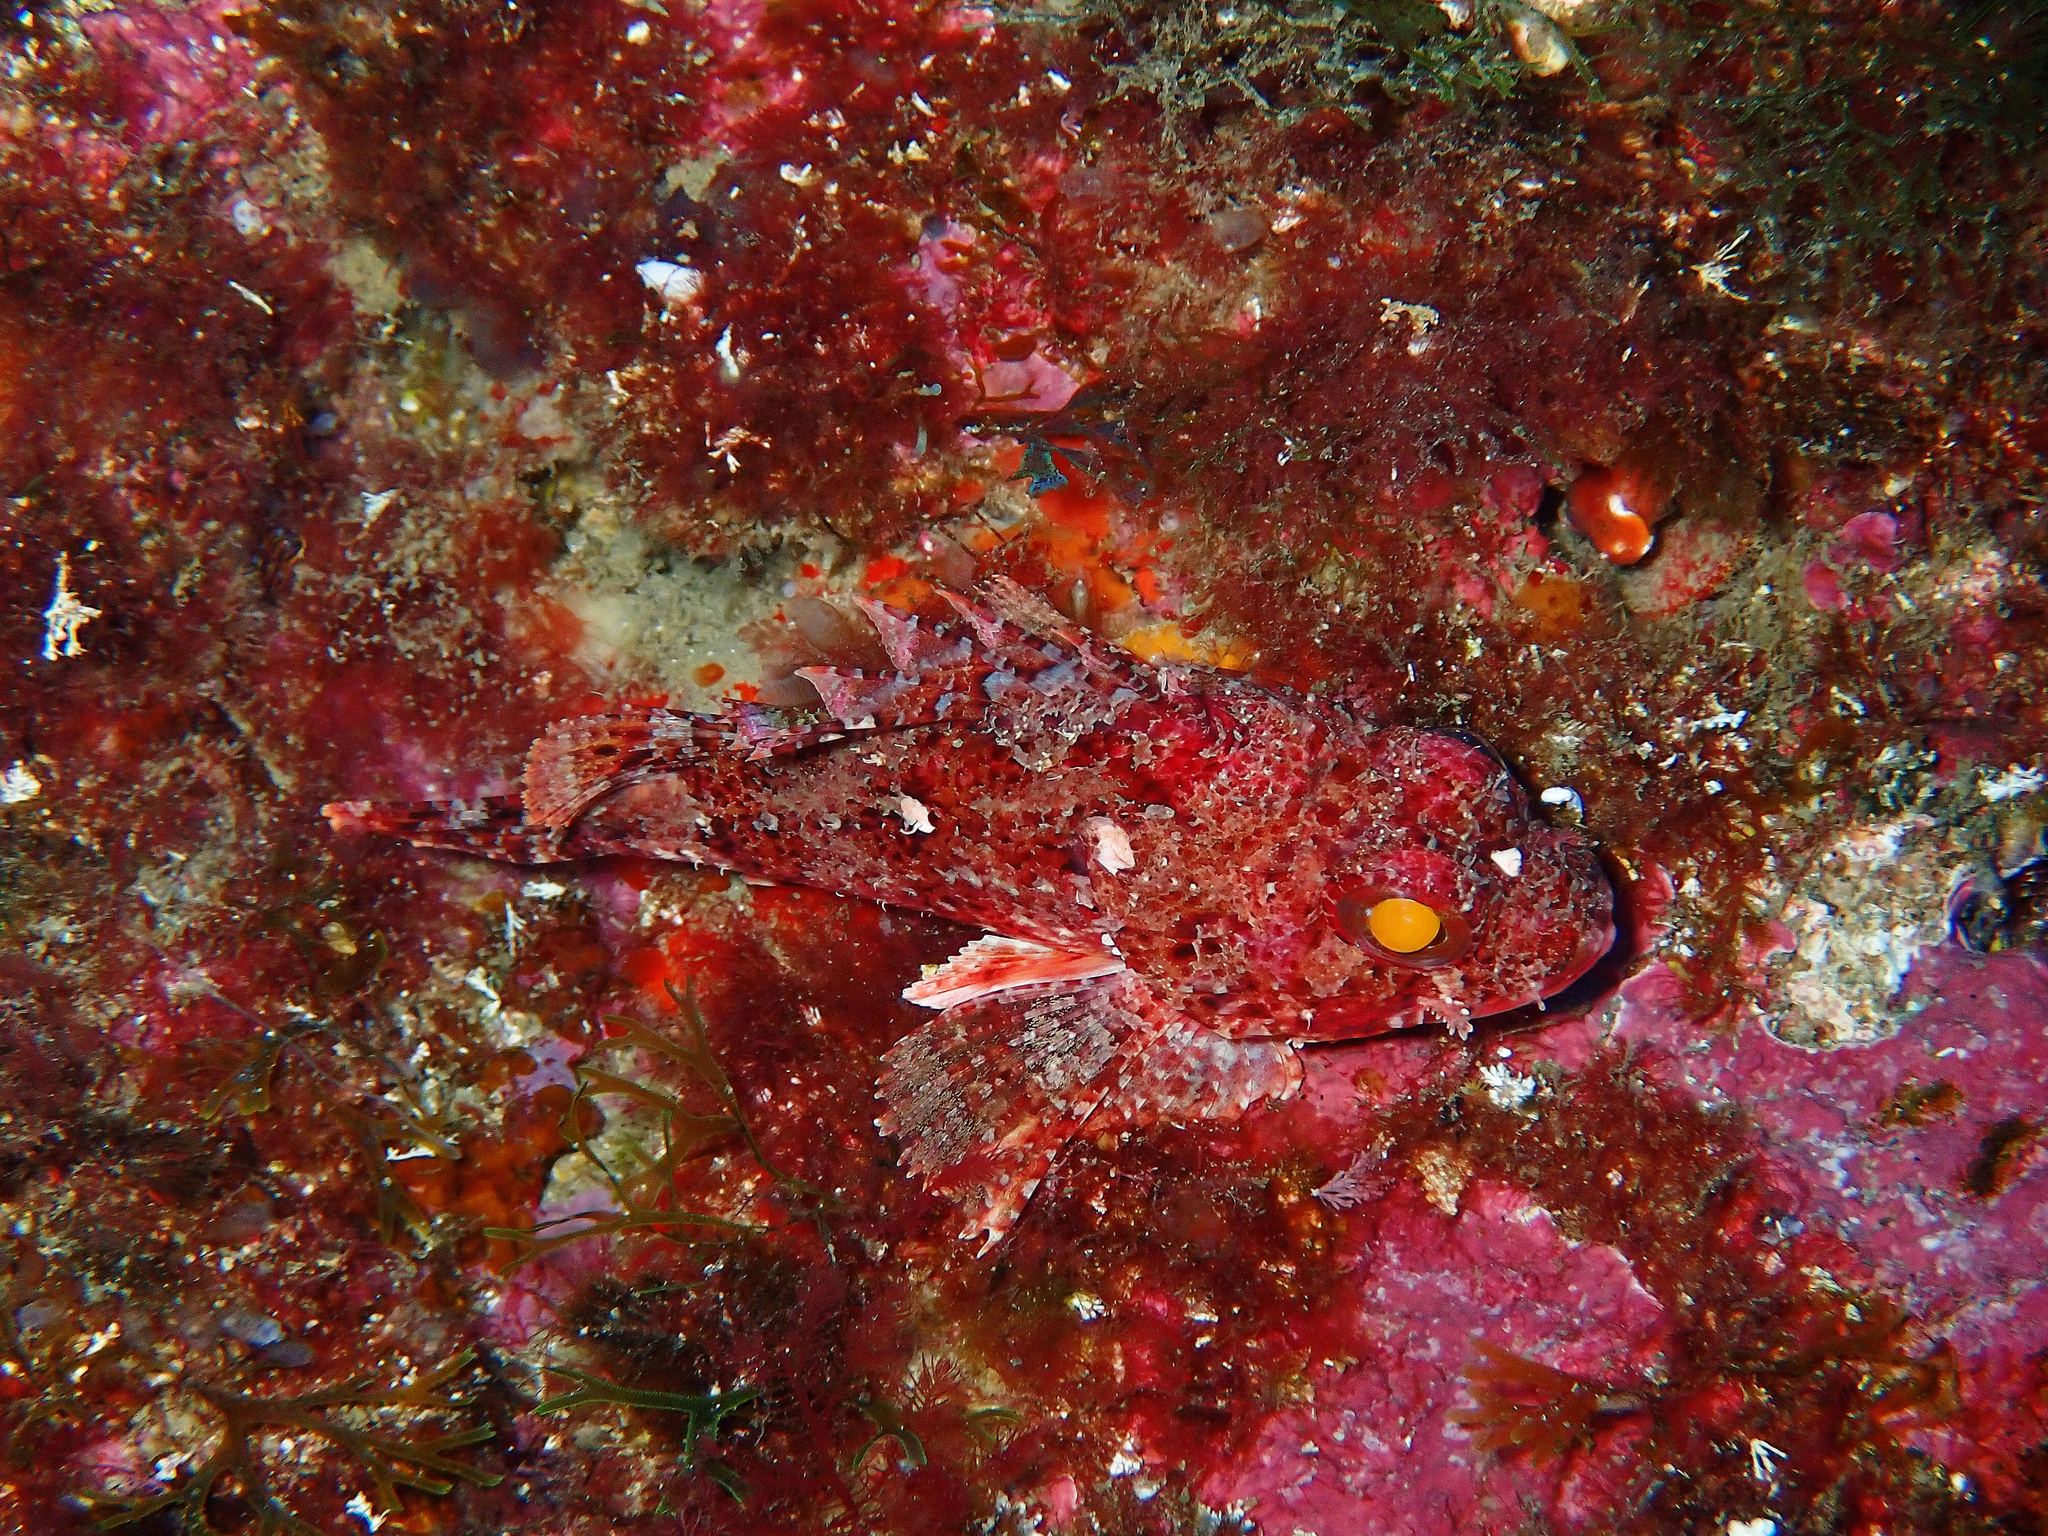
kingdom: Animalia
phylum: Chordata
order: Scorpaeniformes
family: Scorpaenidae
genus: Scorpaena
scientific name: Scorpaena notata
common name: Small red scorpionfish
